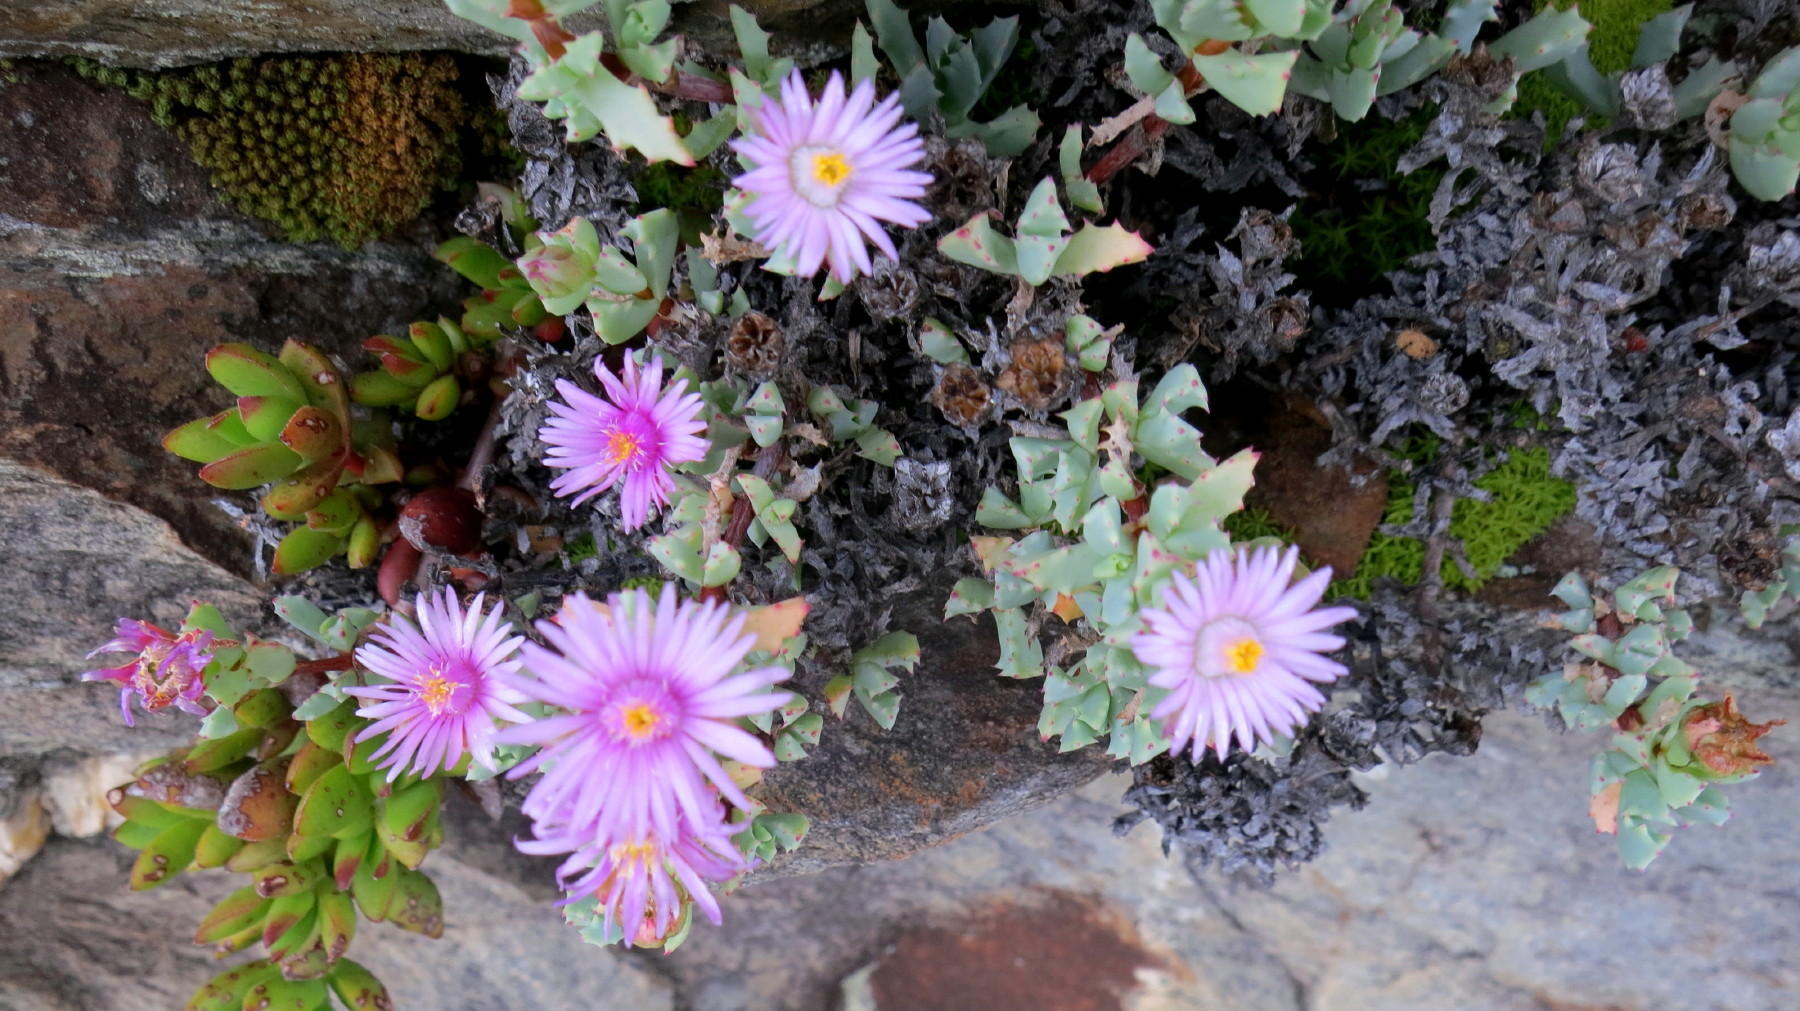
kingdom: Plantae
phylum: Tracheophyta
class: Magnoliopsida
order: Caryophyllales
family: Aizoaceae
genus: Oscularia
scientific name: Oscularia deltoides
